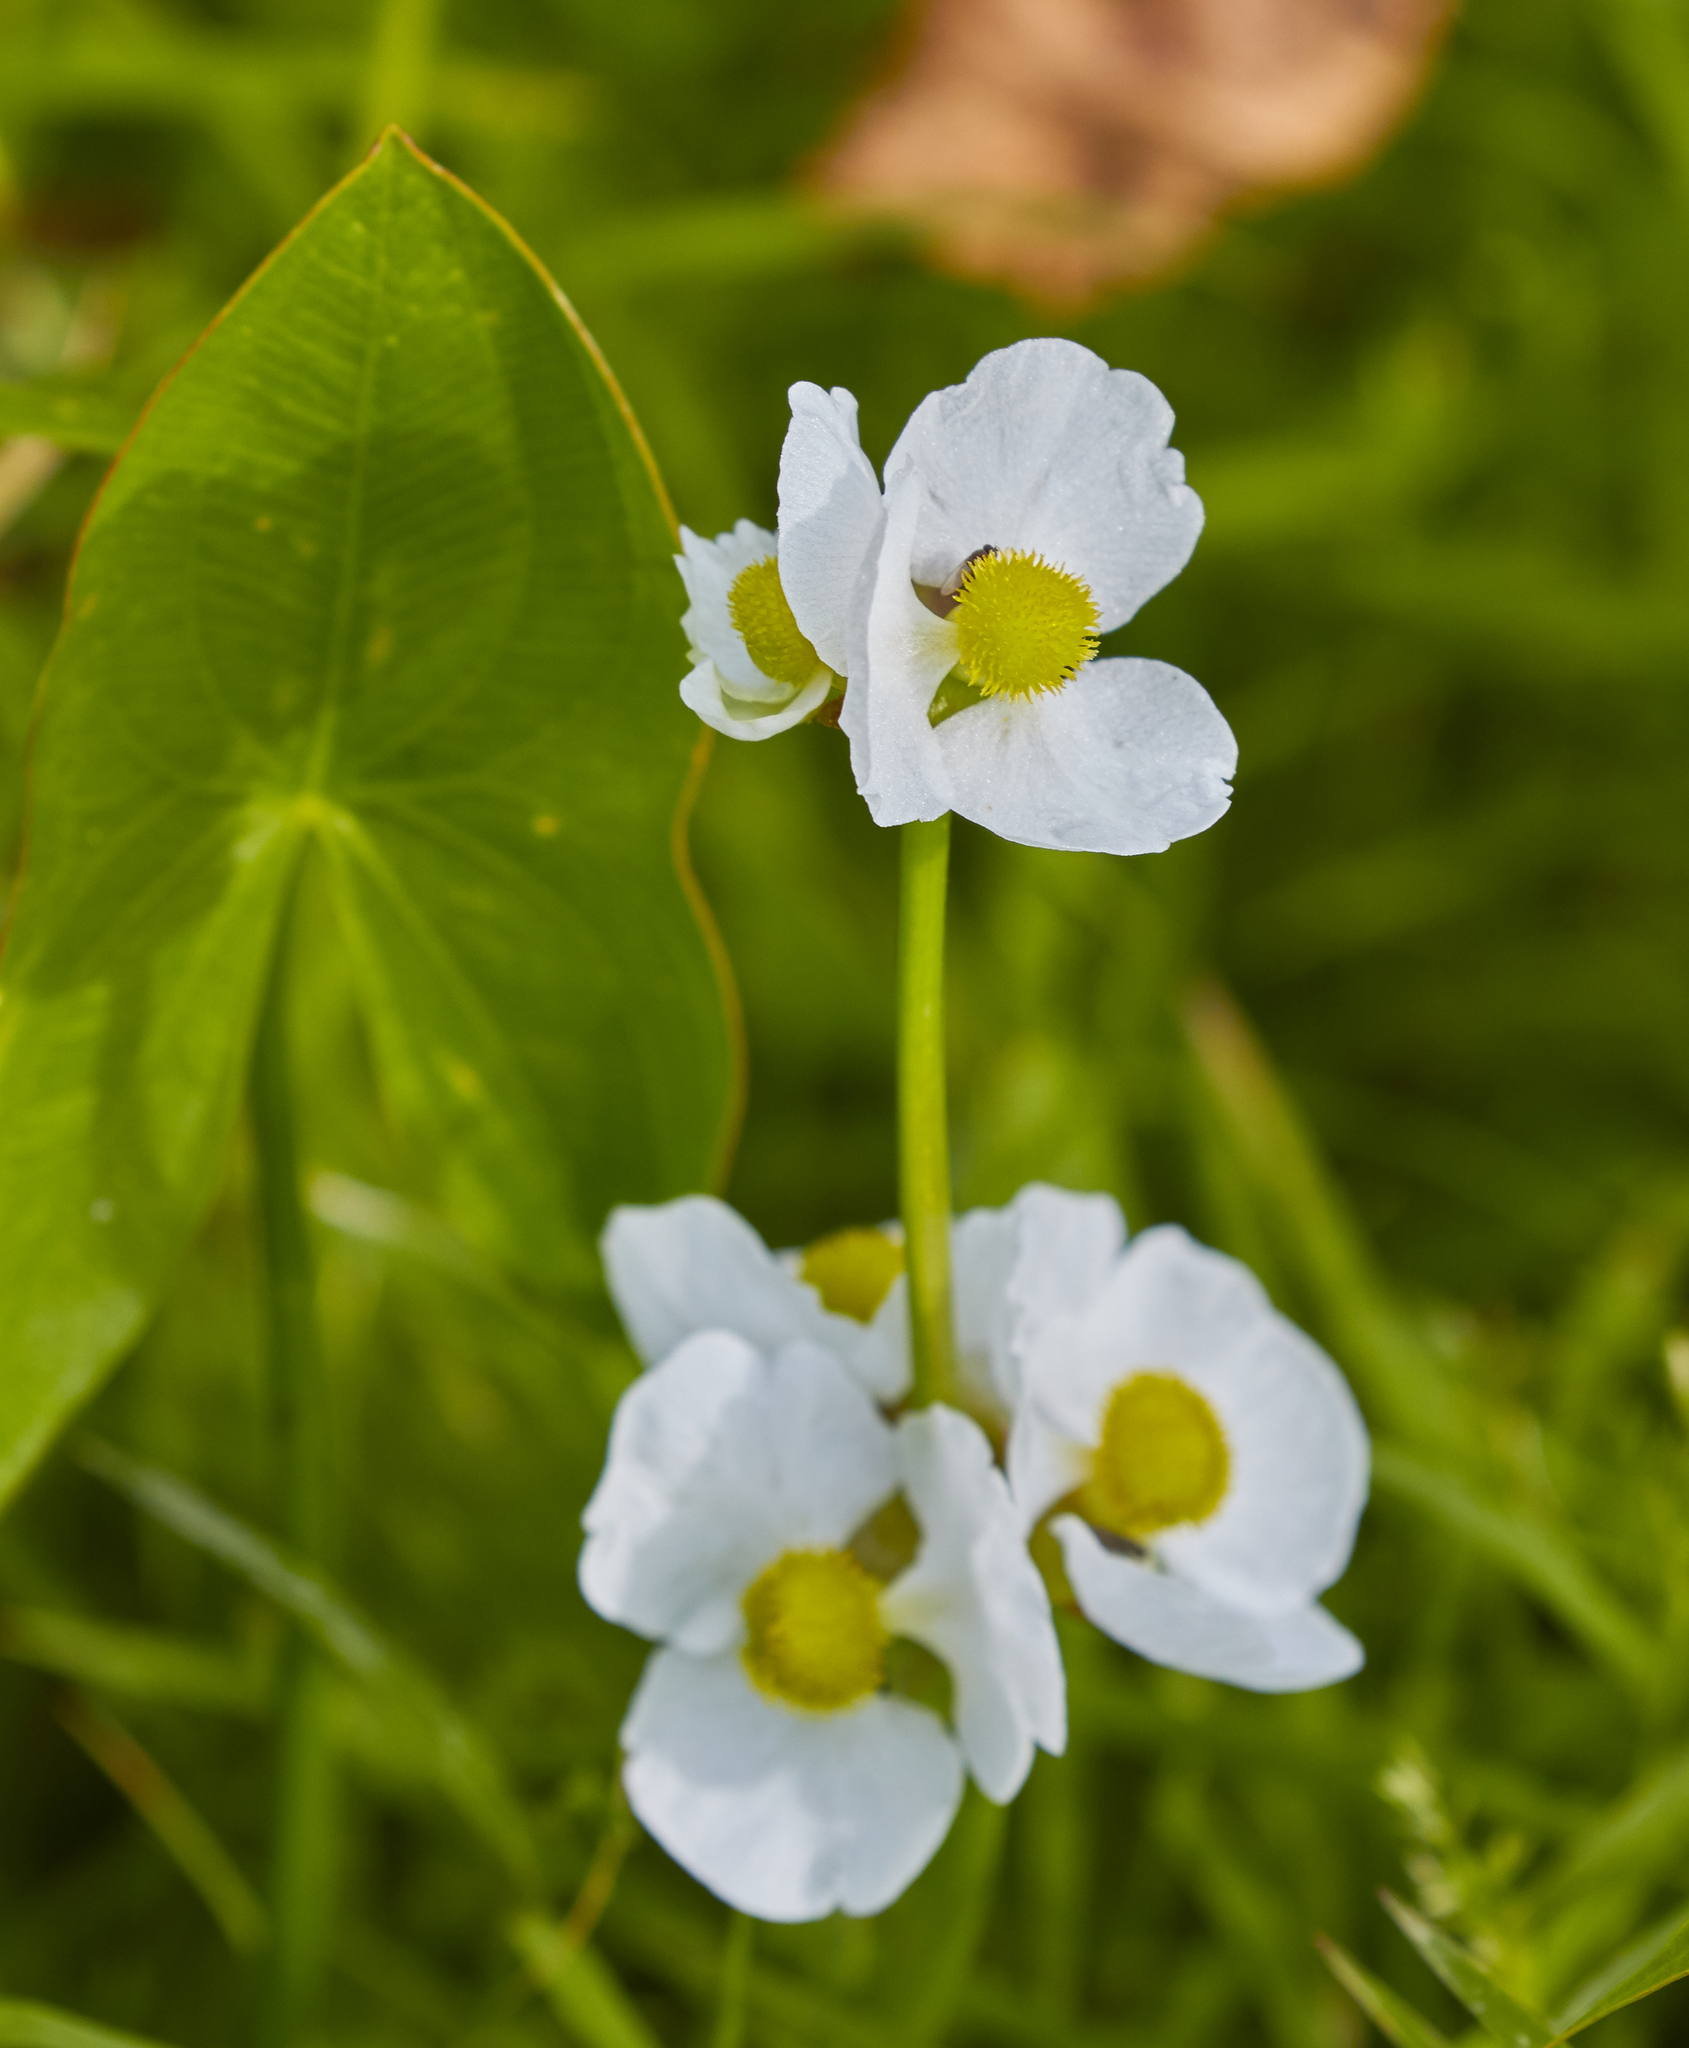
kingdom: Plantae
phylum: Tracheophyta
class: Liliopsida
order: Alismatales
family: Alismataceae
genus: Sagittaria
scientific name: Sagittaria latifolia
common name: Duck-potato
